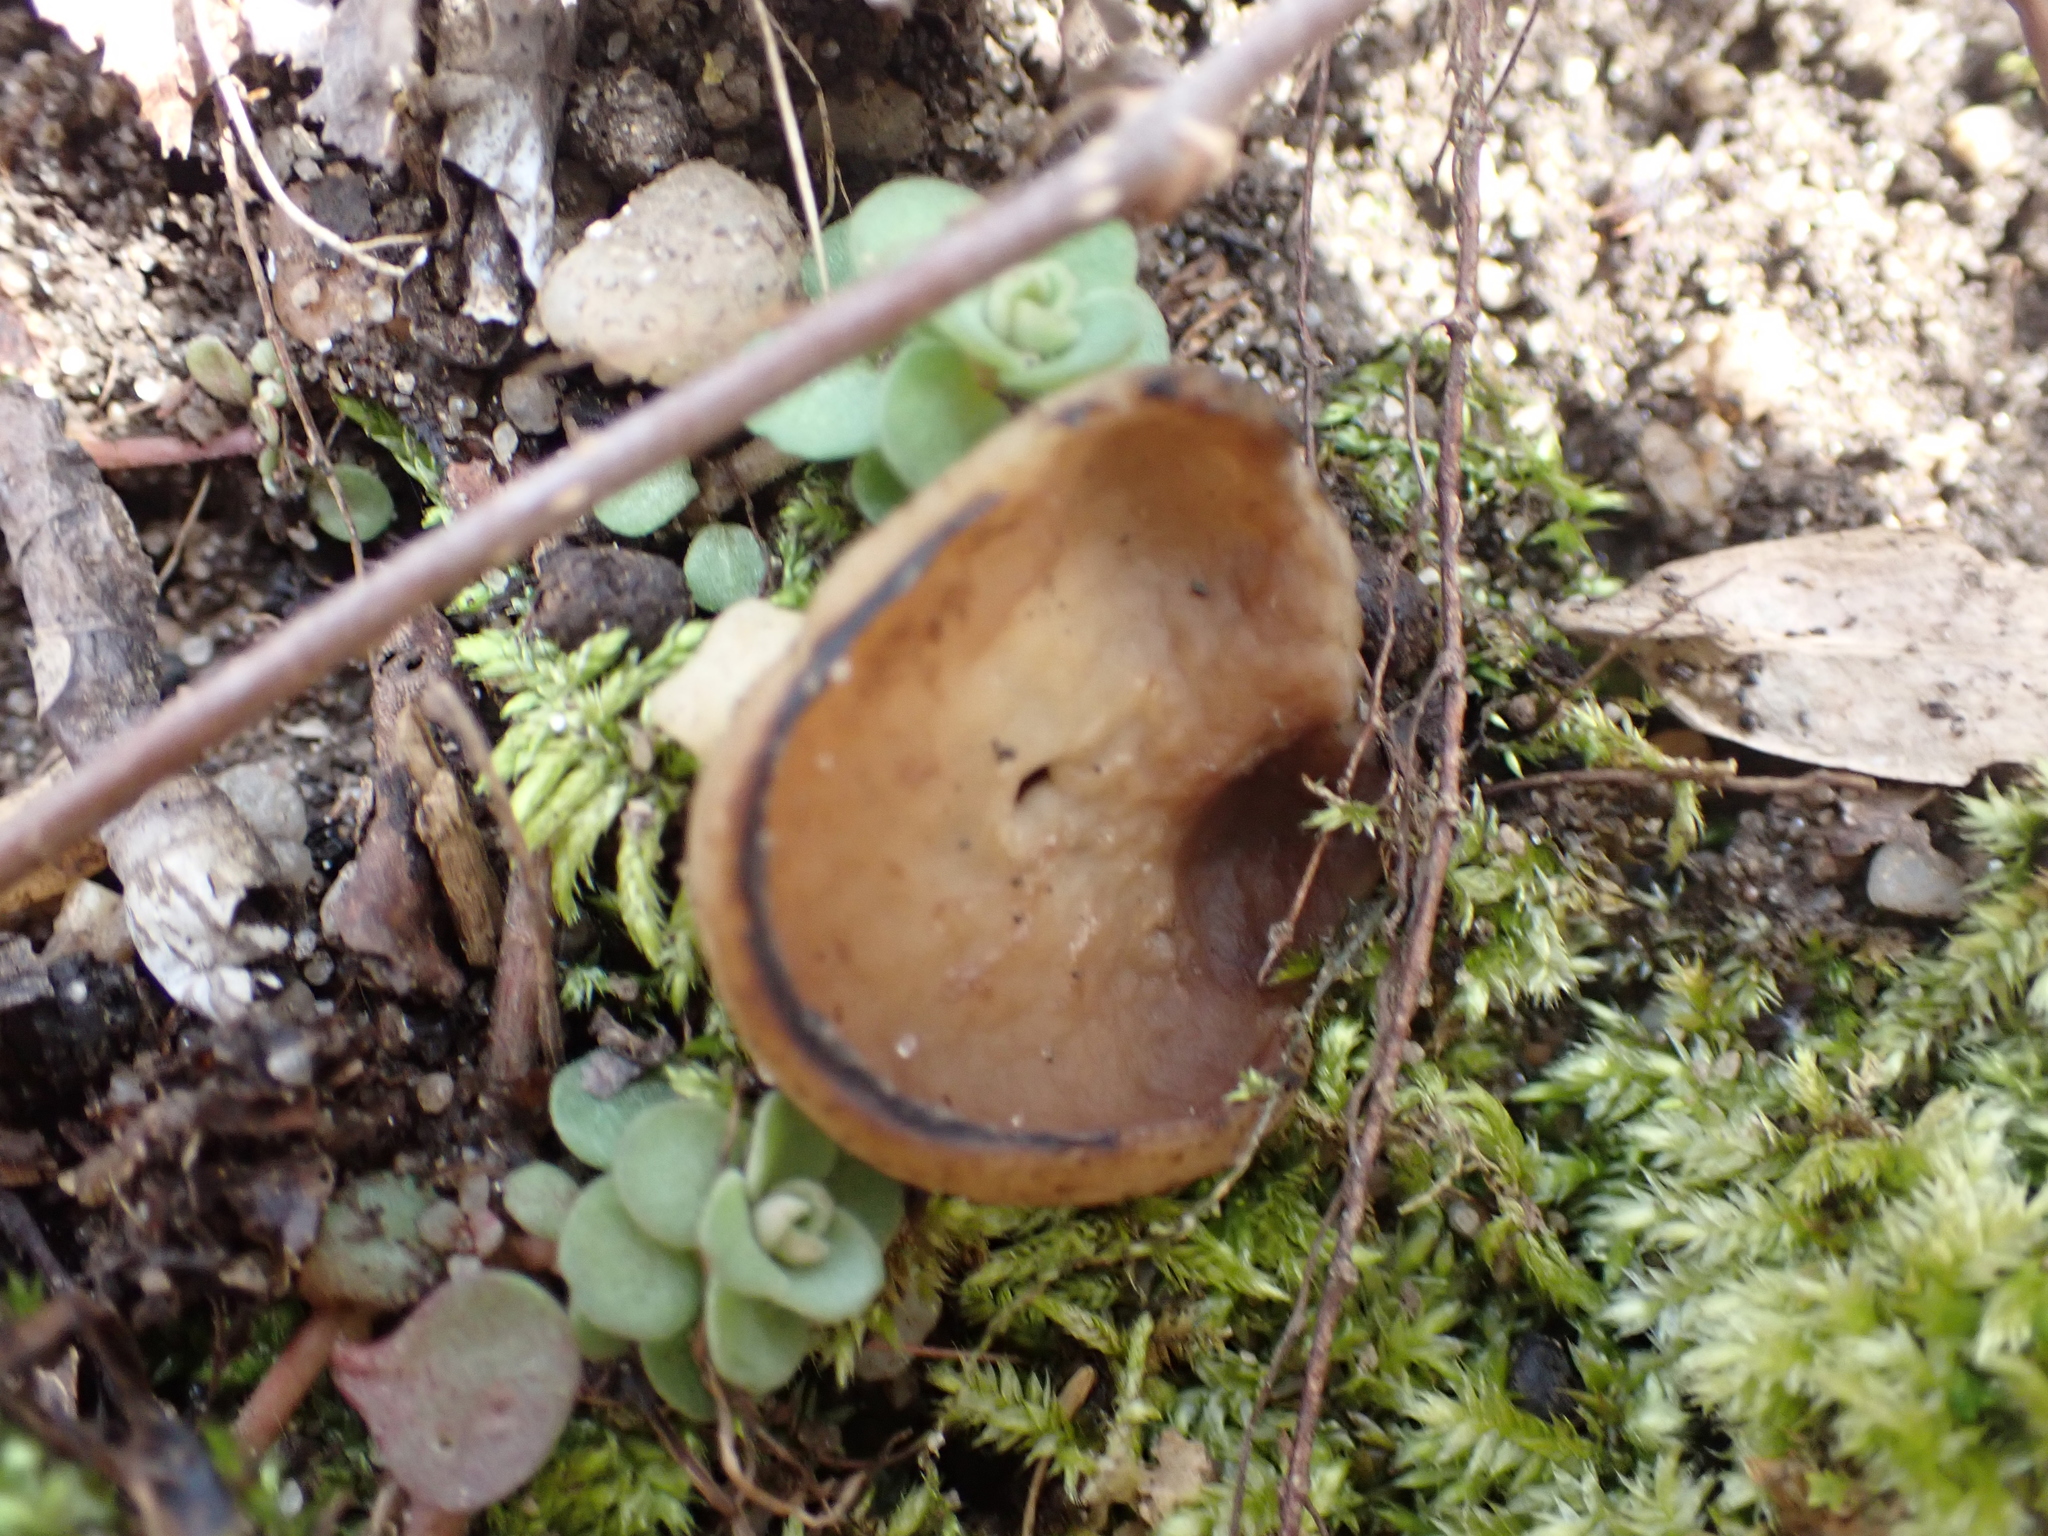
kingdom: Fungi
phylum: Ascomycota
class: Pezizomycetes
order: Pezizales
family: Pezizaceae
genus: Phylloscypha
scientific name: Phylloscypha phyllogena
